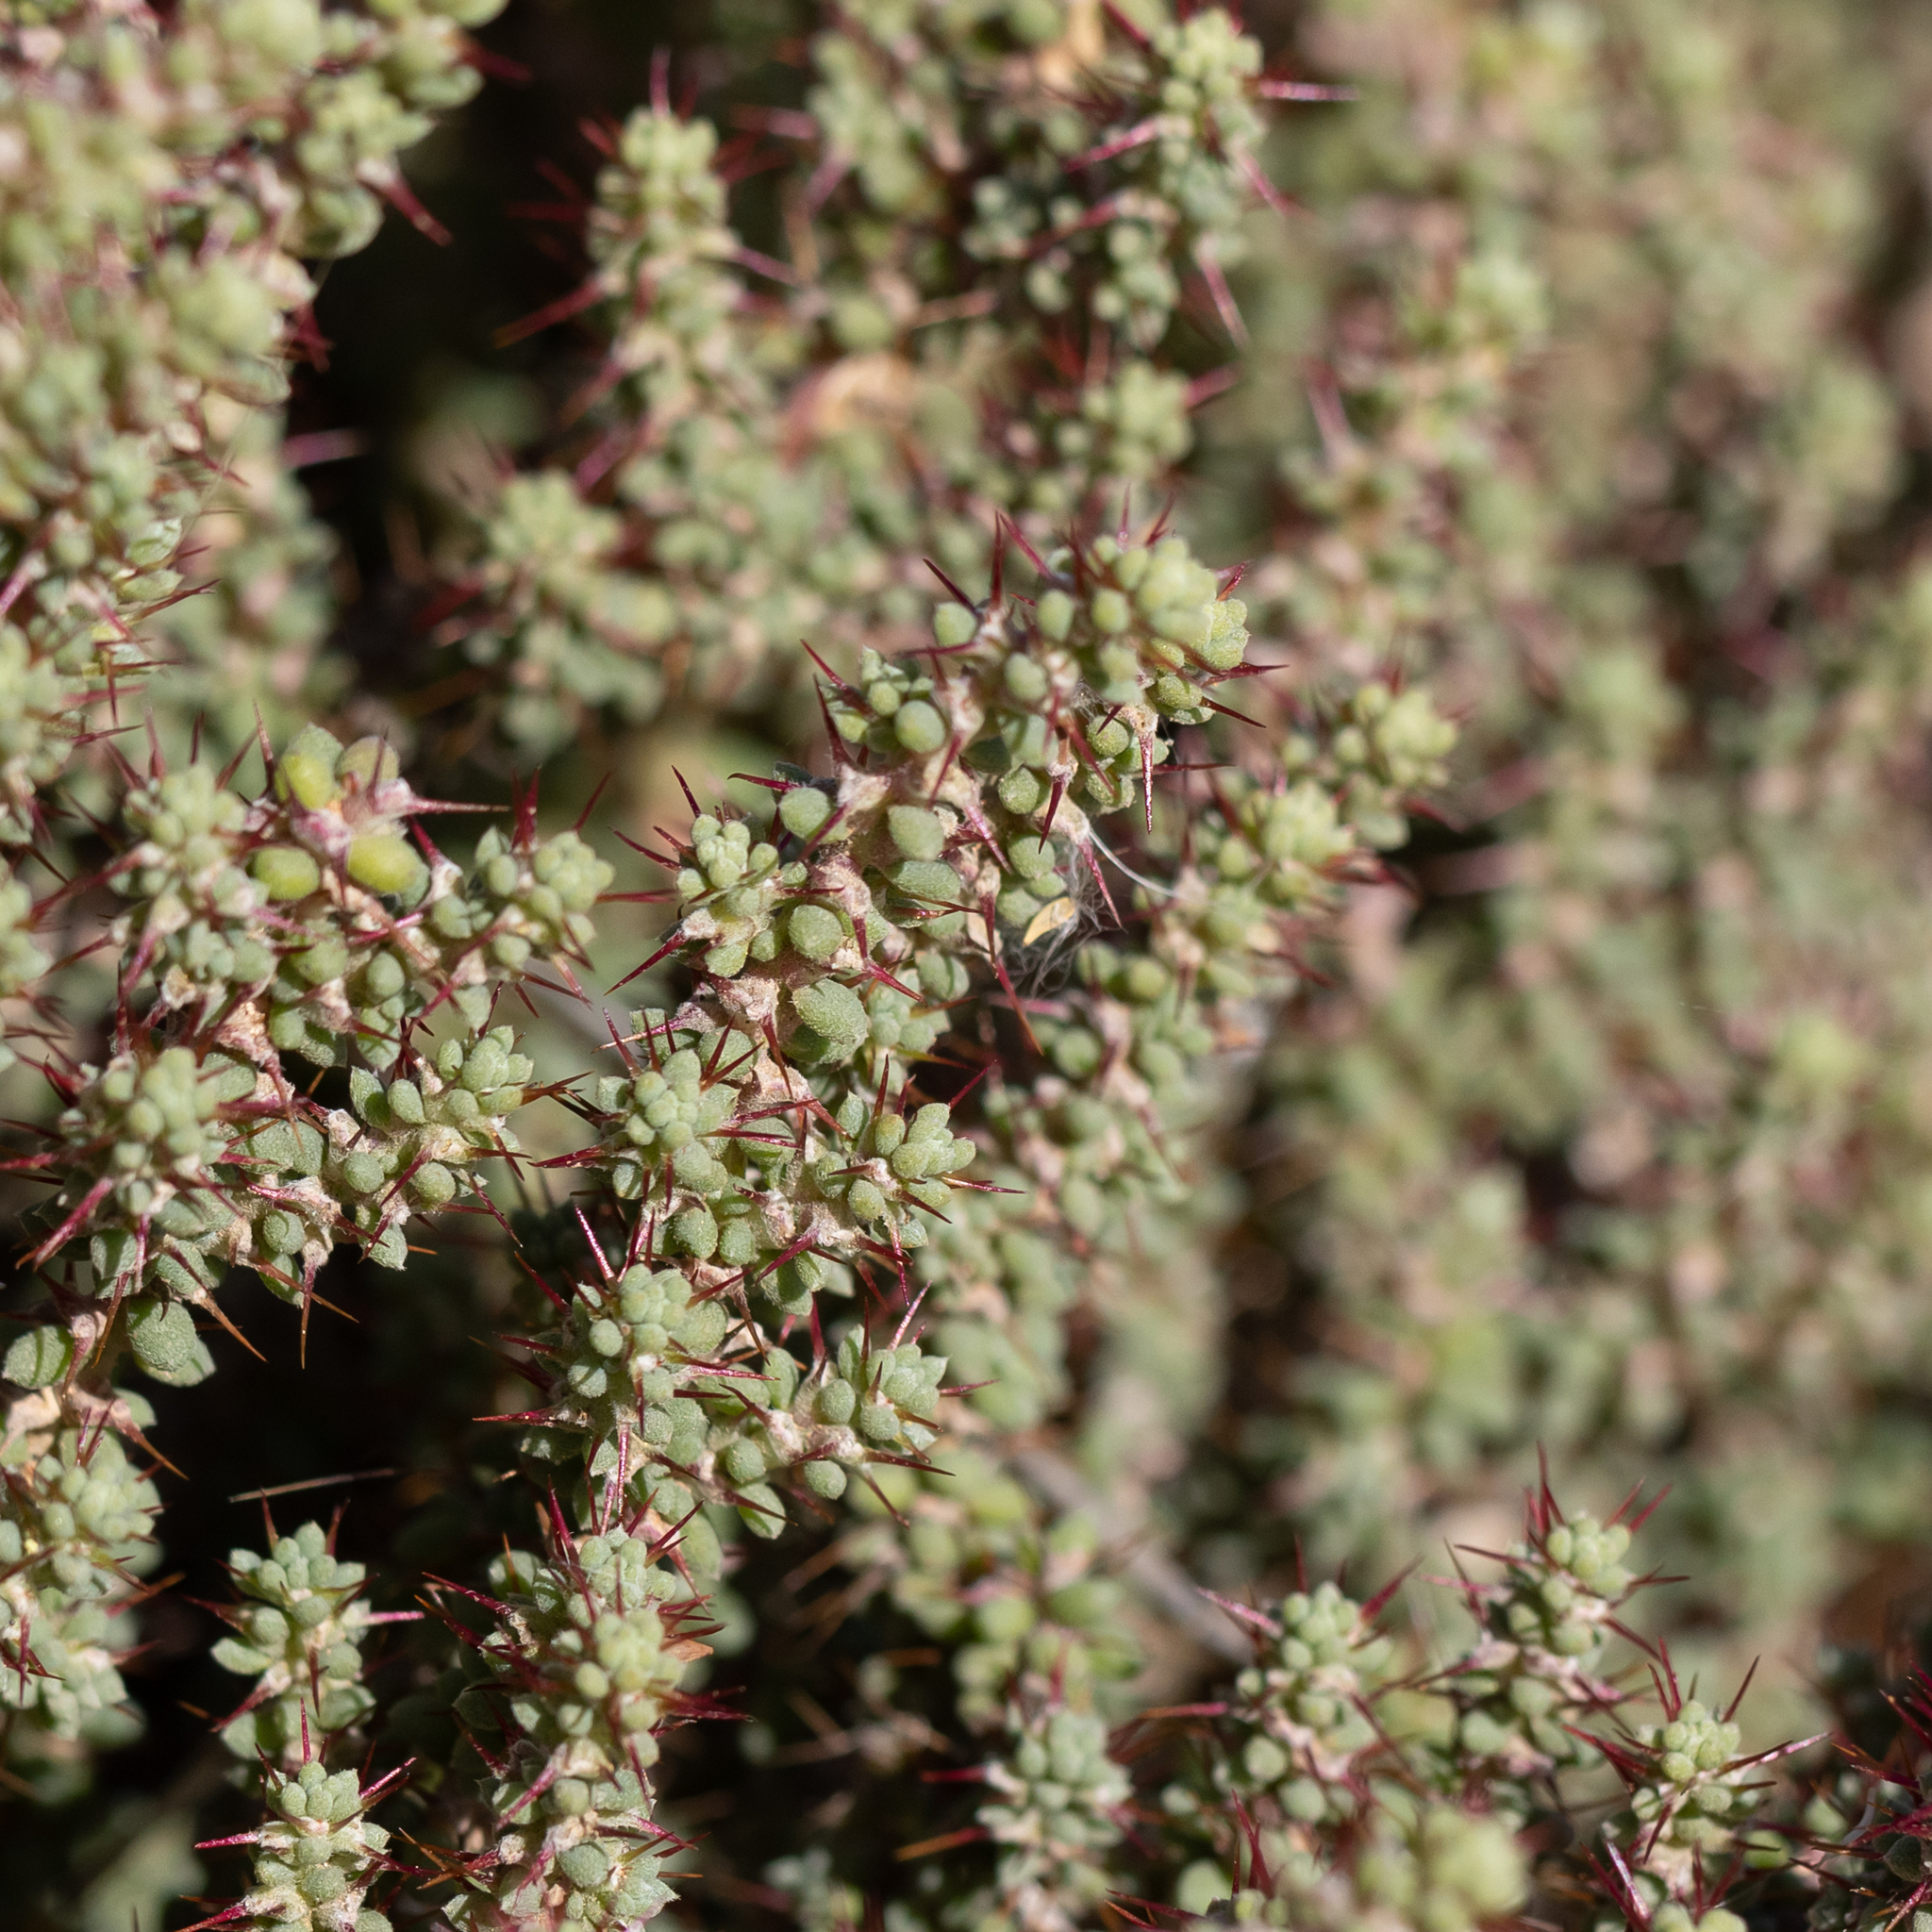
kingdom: Plantae
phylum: Tracheophyta
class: Magnoliopsida
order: Caryophyllales
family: Amaranthaceae
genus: Sclerolaena
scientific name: Sclerolaena brevifolia
